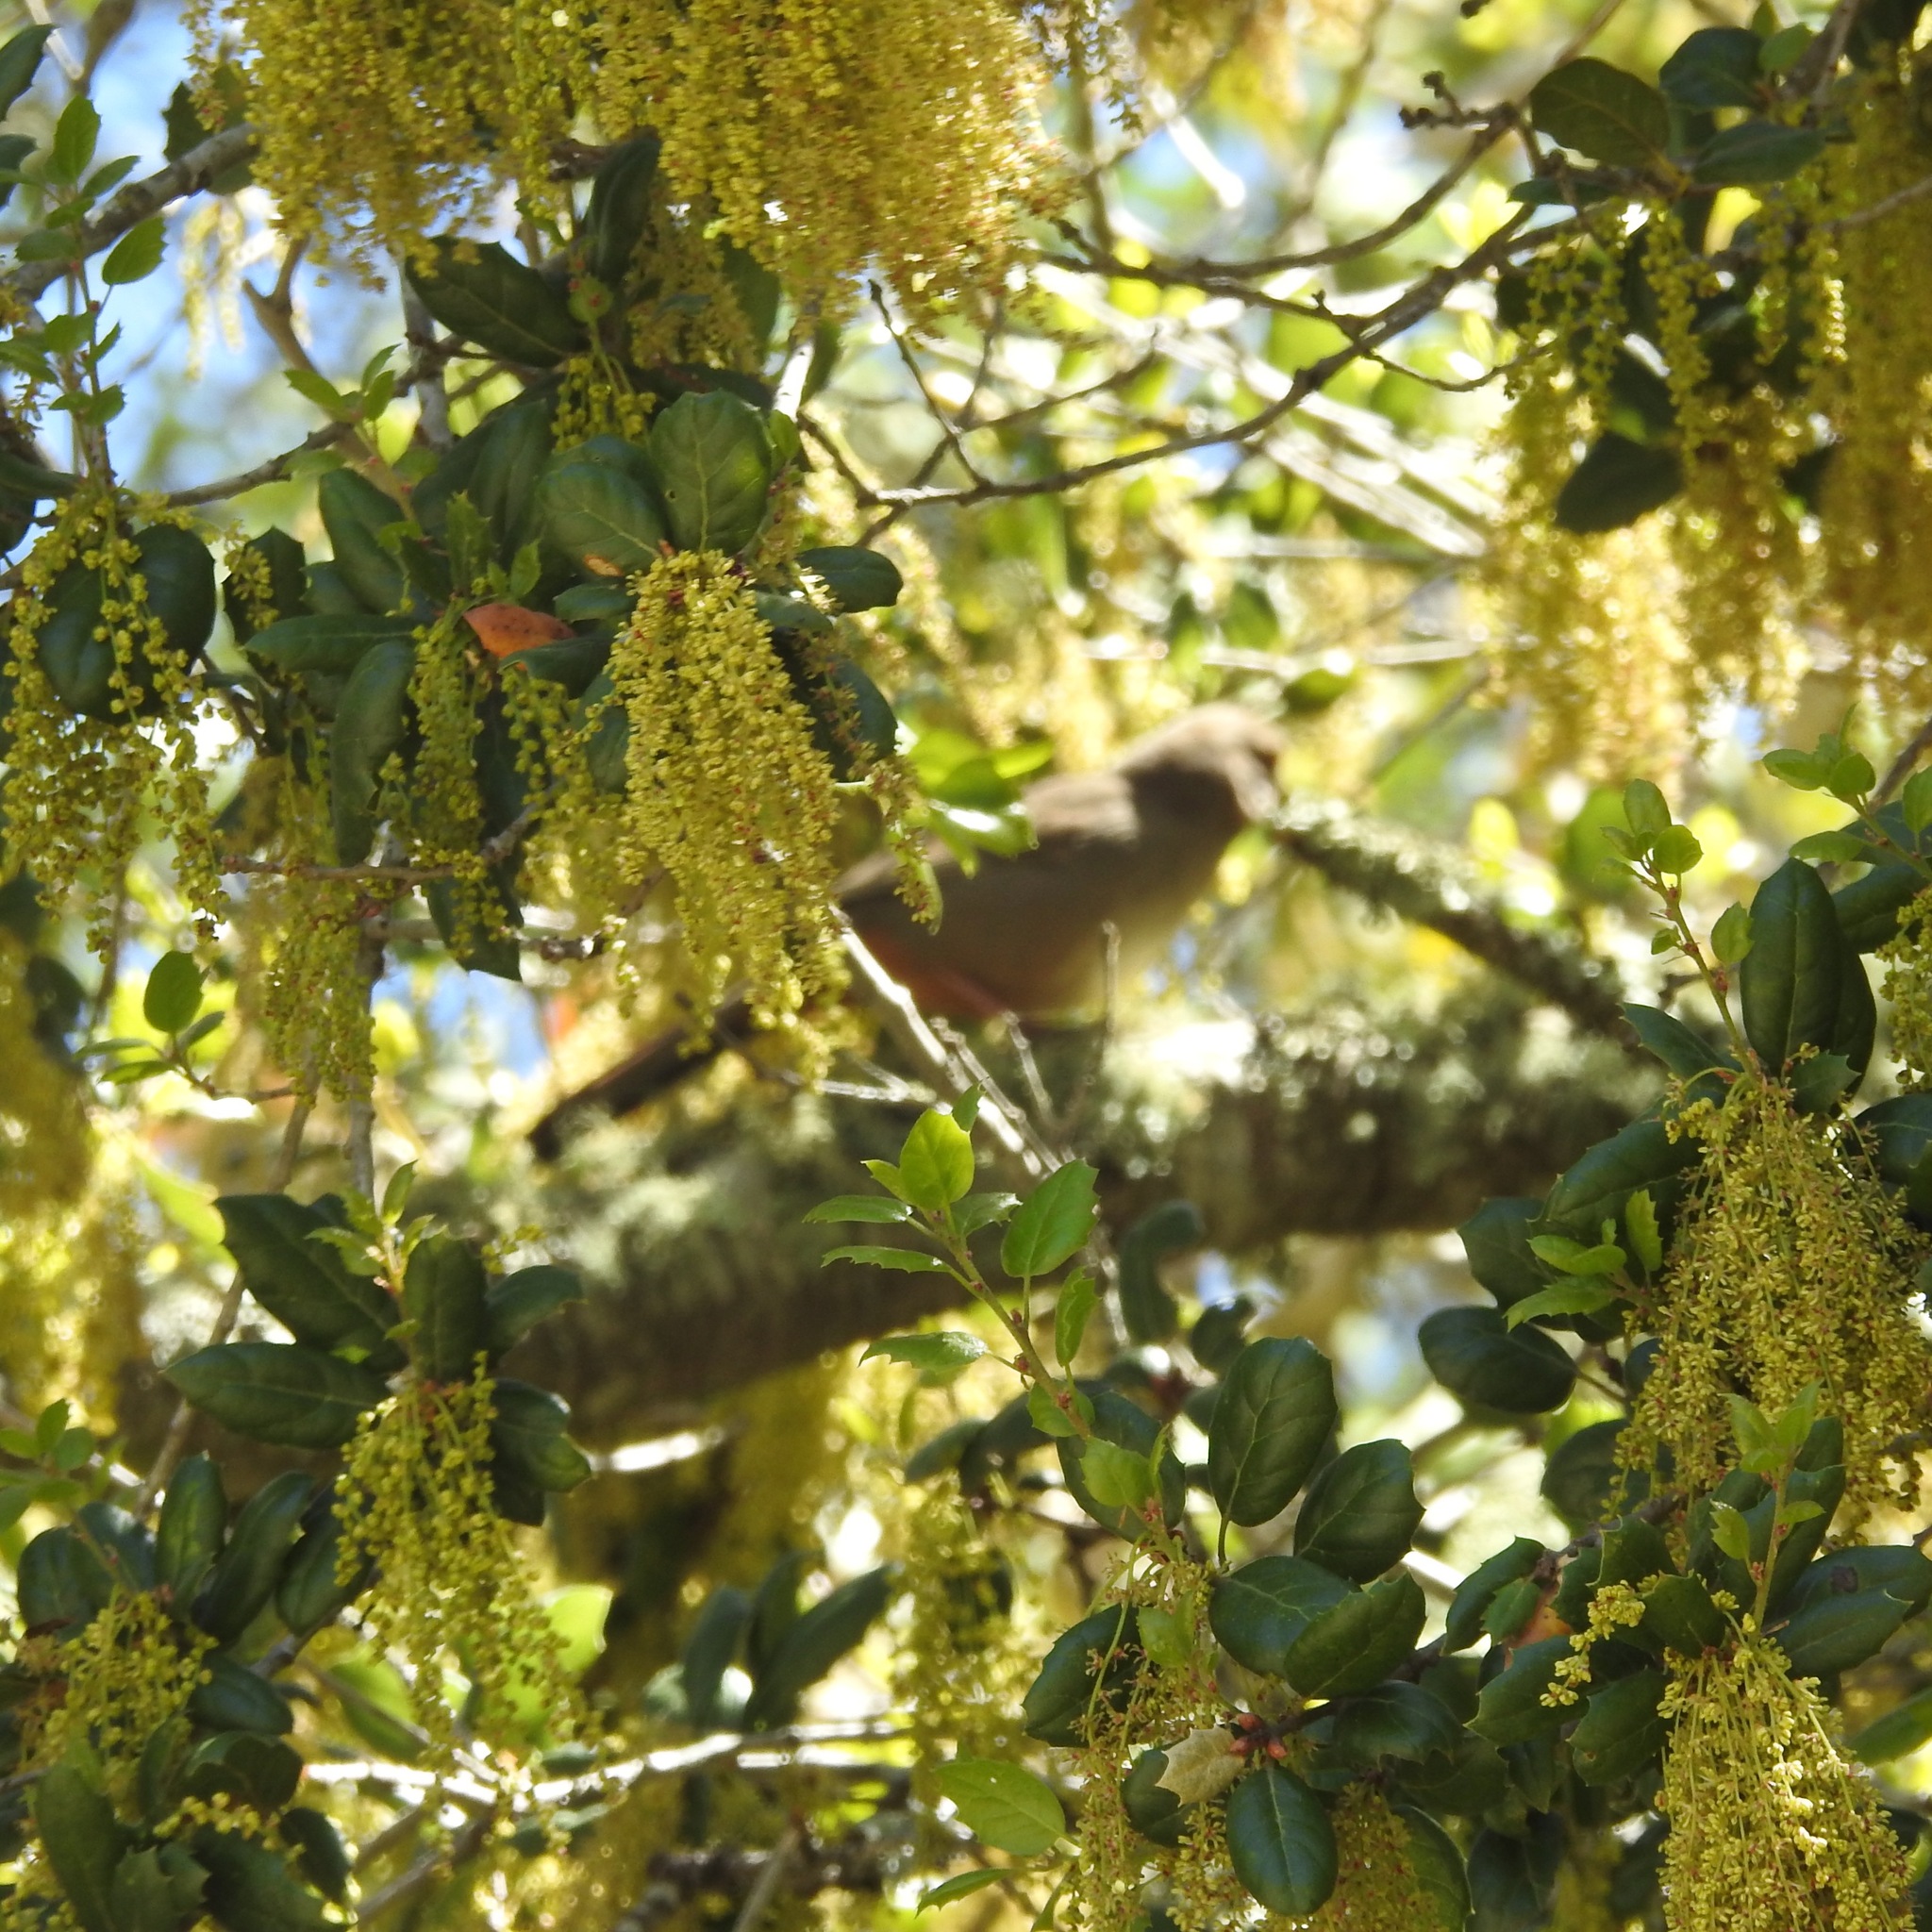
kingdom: Animalia
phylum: Chordata
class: Aves
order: Passeriformes
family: Passerellidae
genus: Melozone
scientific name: Melozone crissalis
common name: California towhee
